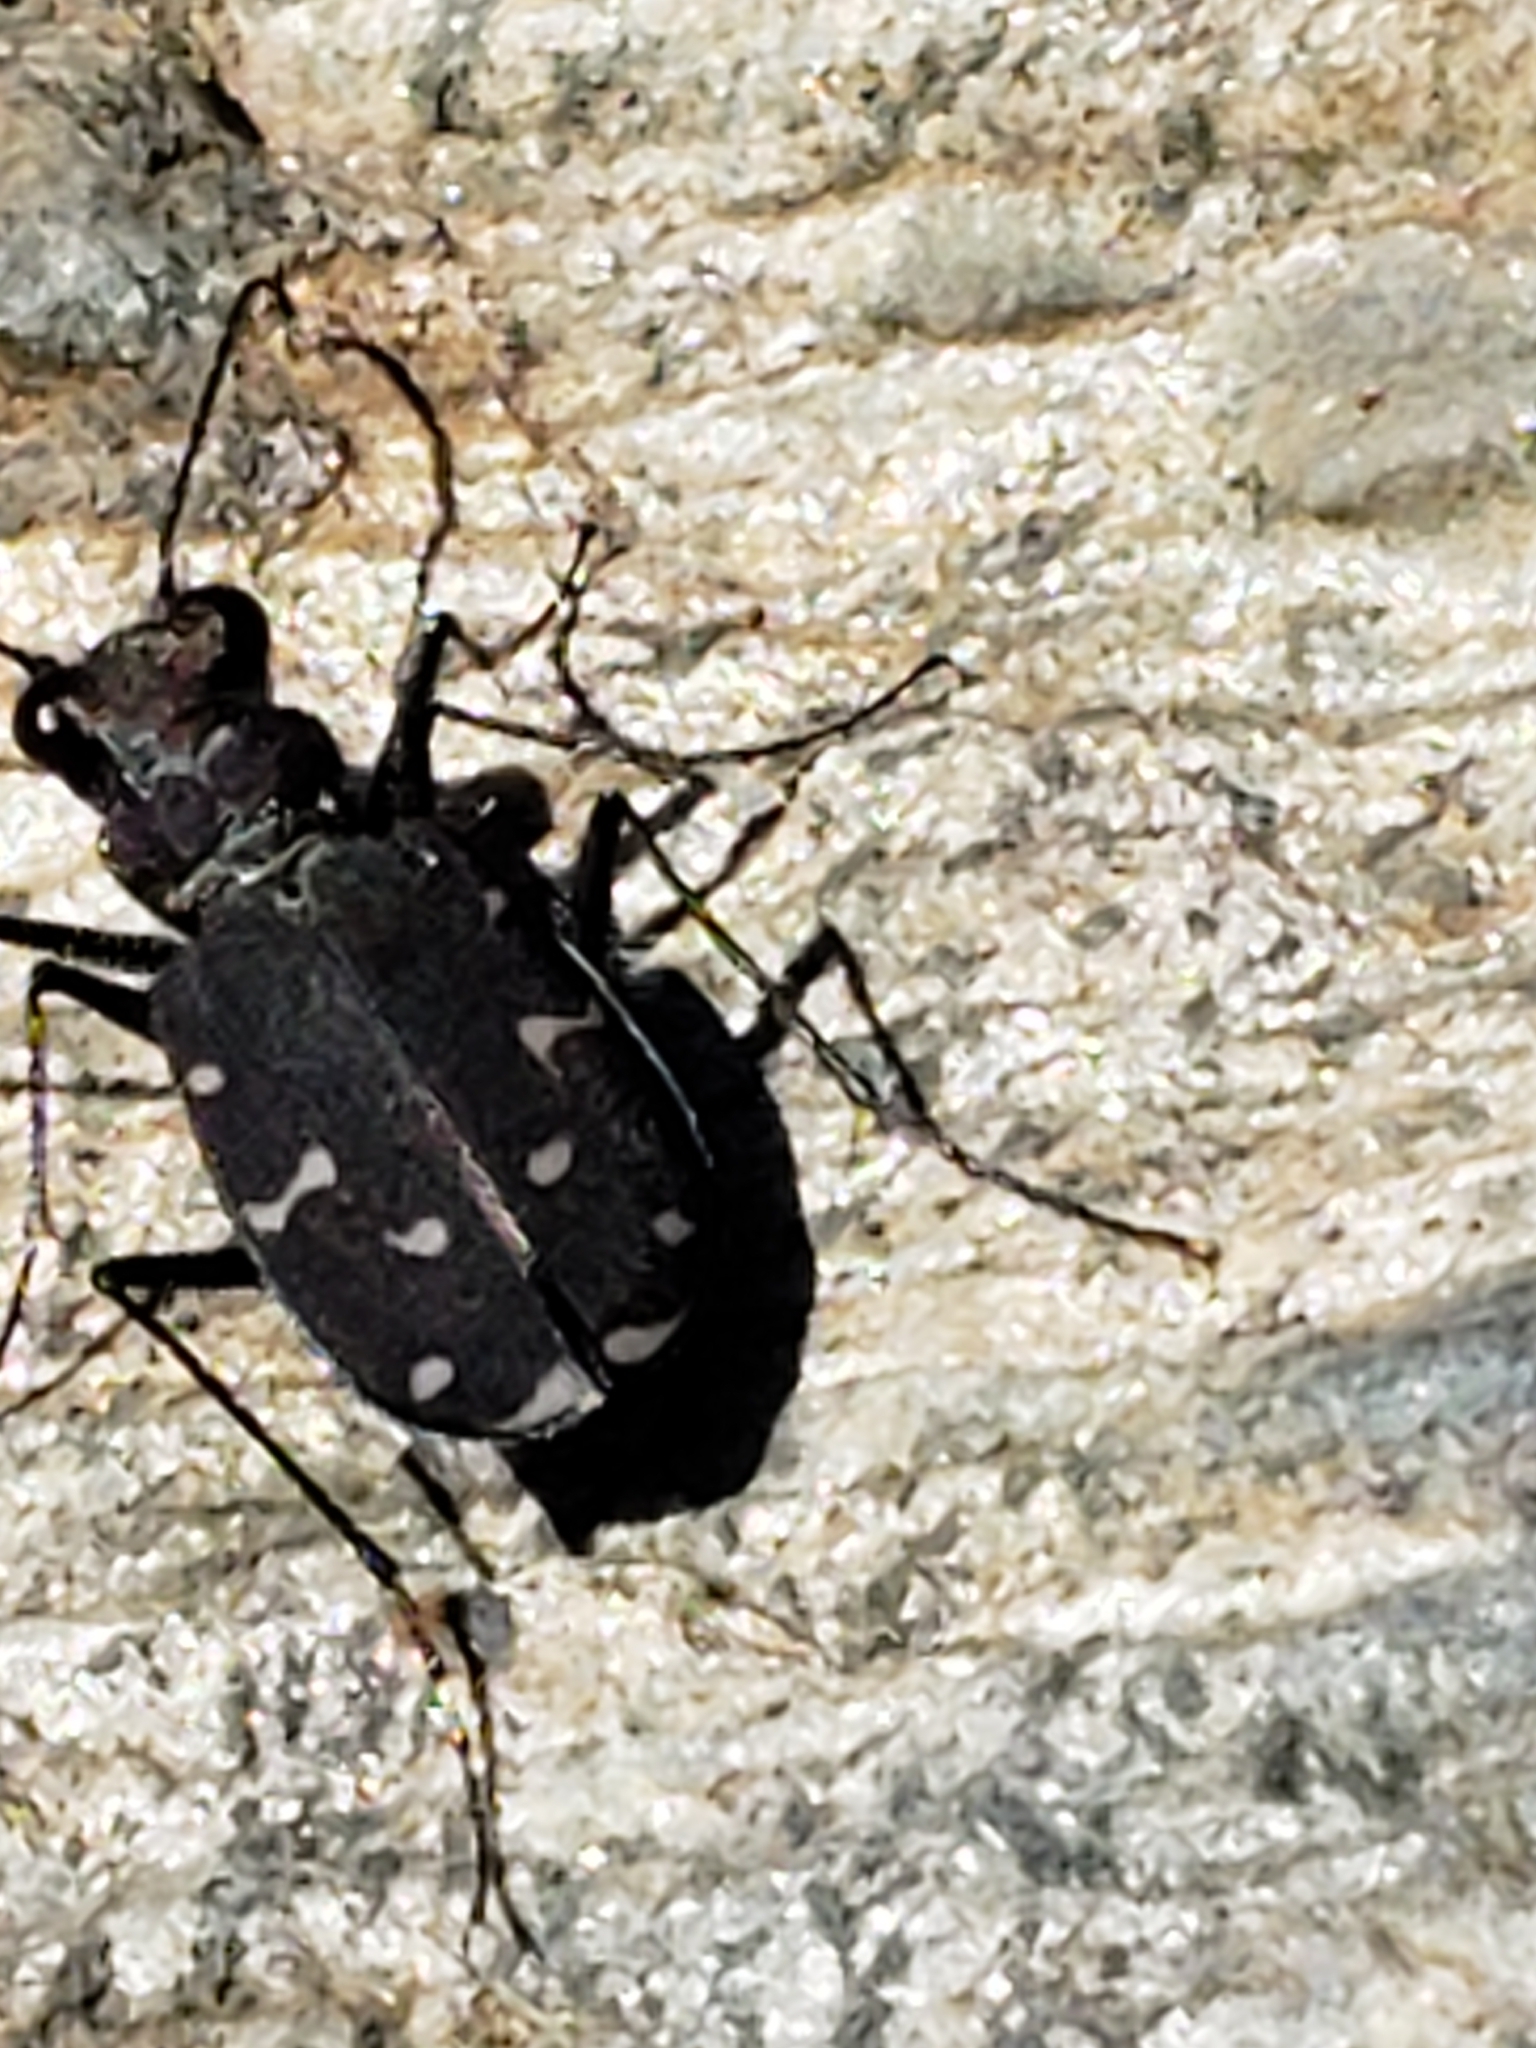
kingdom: Animalia
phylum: Arthropoda
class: Insecta
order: Coleoptera
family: Carabidae
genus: Cicindela
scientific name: Cicindela duodecimguttata
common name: Twelve-spotted tiger beetle
